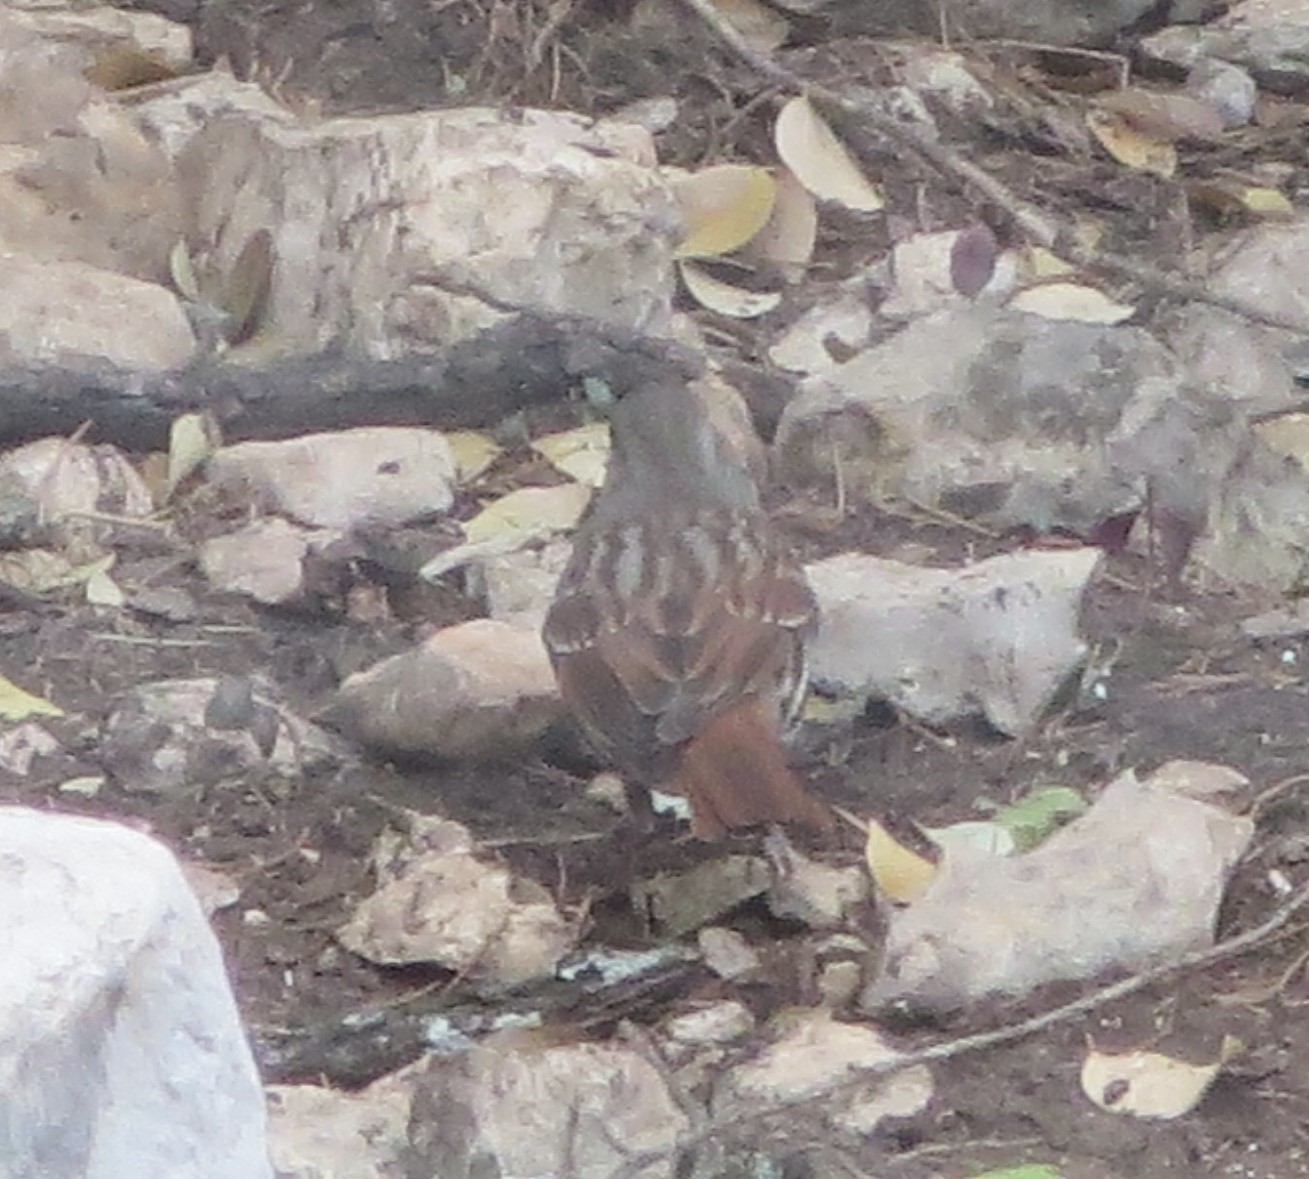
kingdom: Animalia
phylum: Chordata
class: Aves
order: Passeriformes
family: Passerellidae
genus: Passerella
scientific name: Passerella iliaca
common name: Fox sparrow
